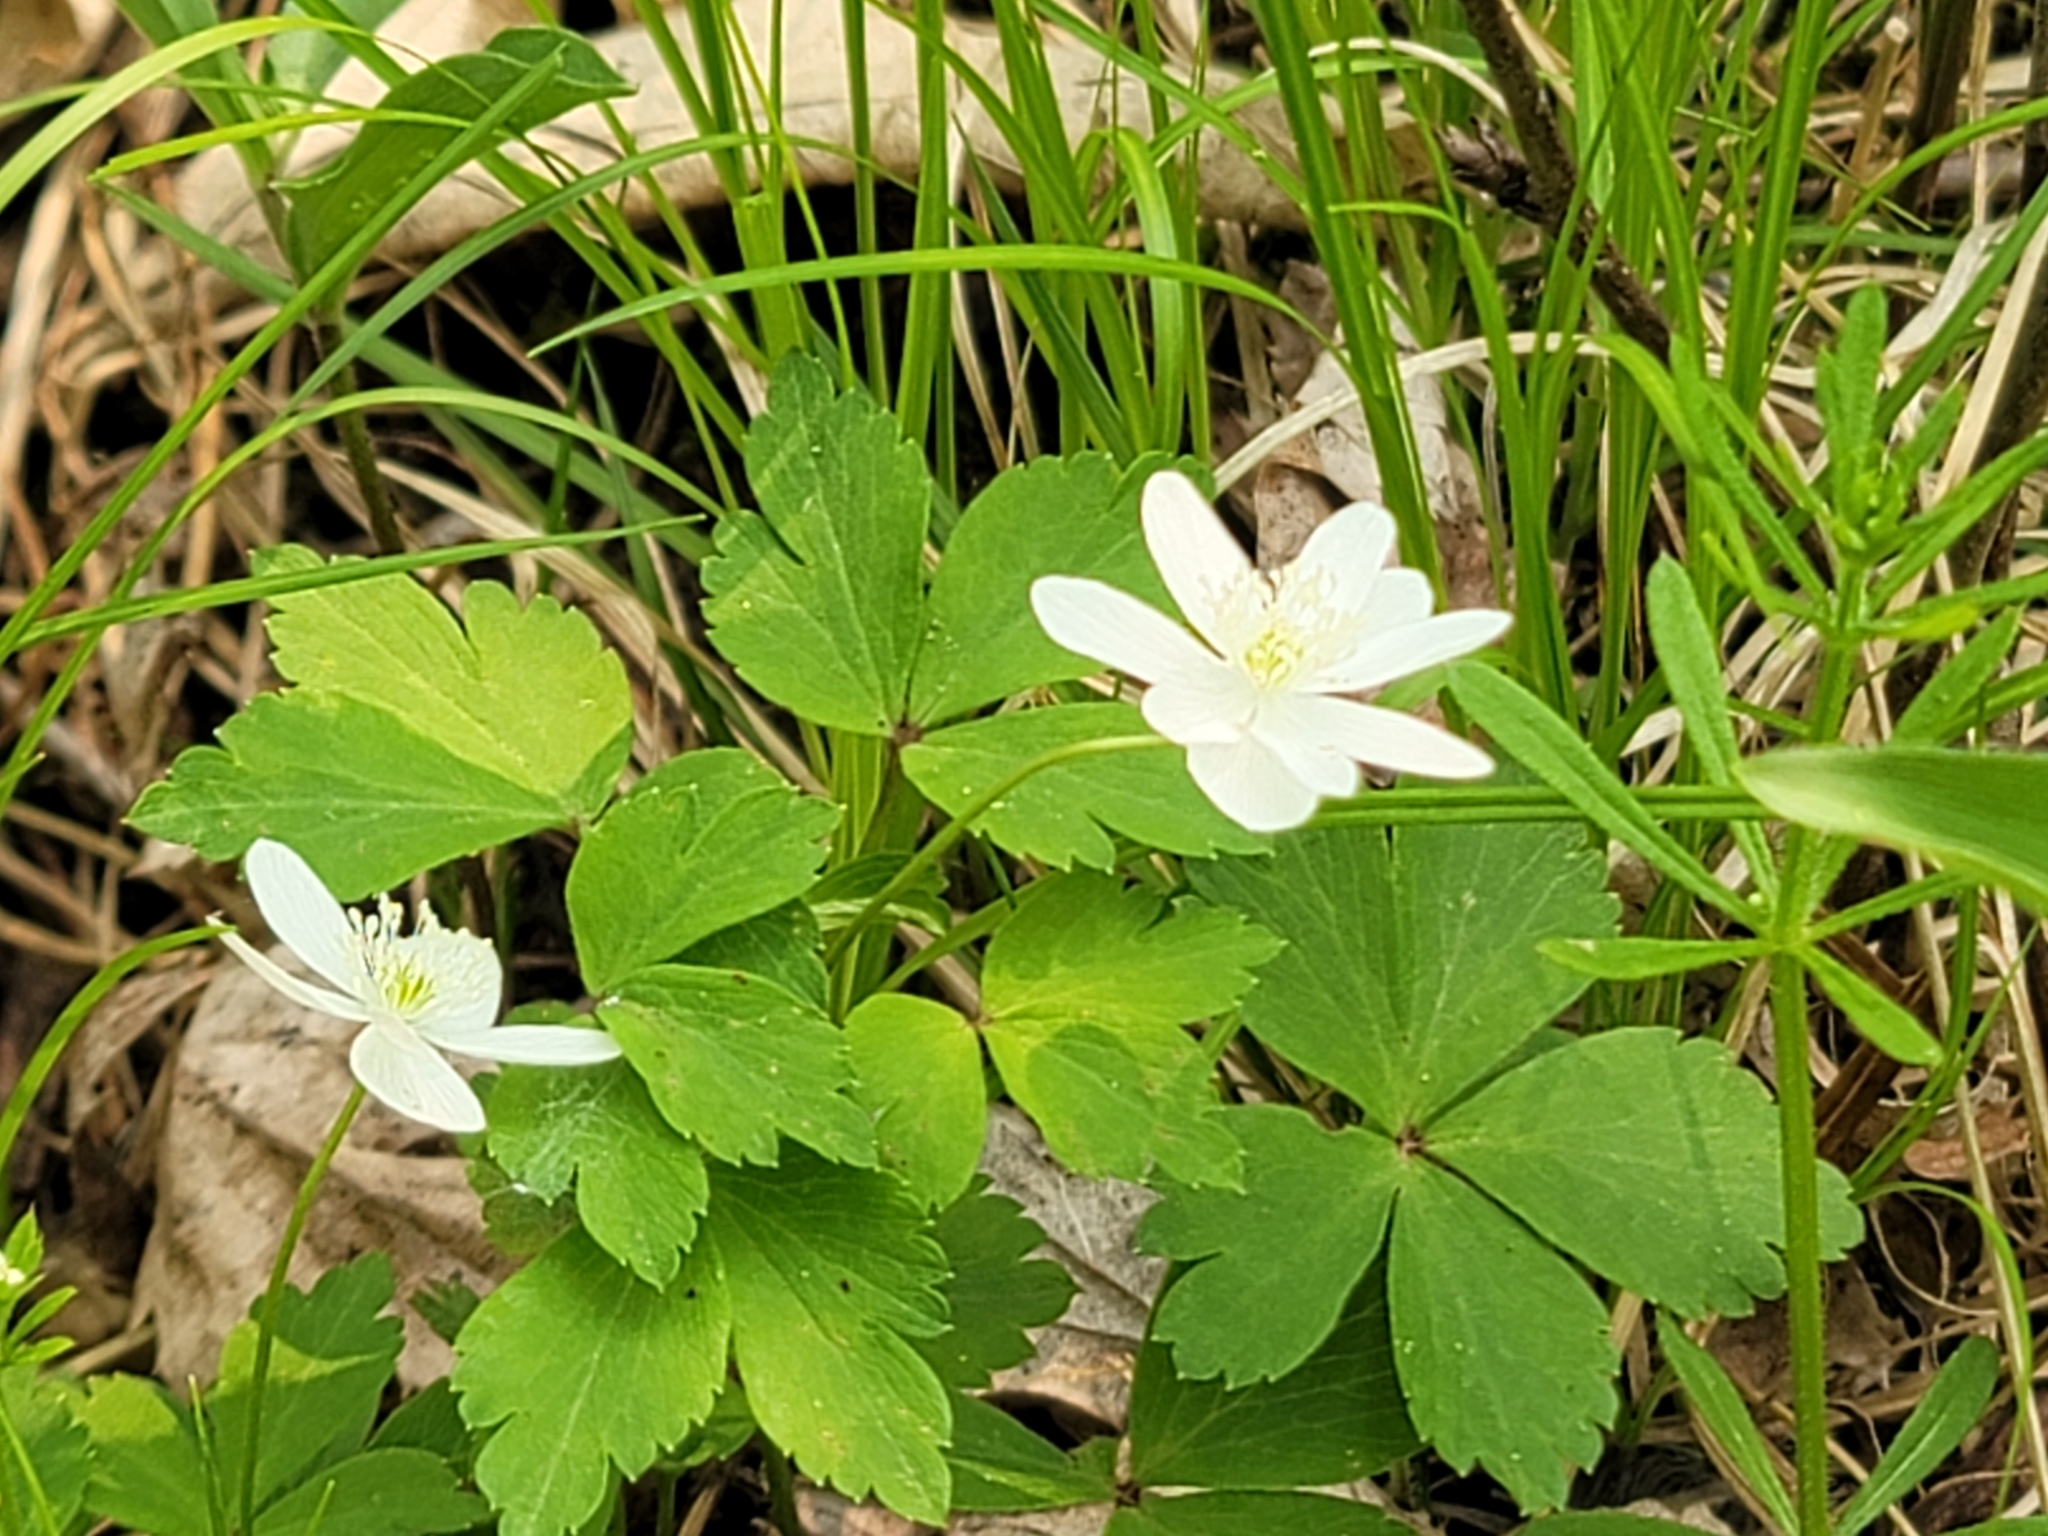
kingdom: Plantae
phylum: Tracheophyta
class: Magnoliopsida
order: Ranunculales
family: Ranunculaceae
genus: Anemone
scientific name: Anemone quinquefolia
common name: Wood anemone
